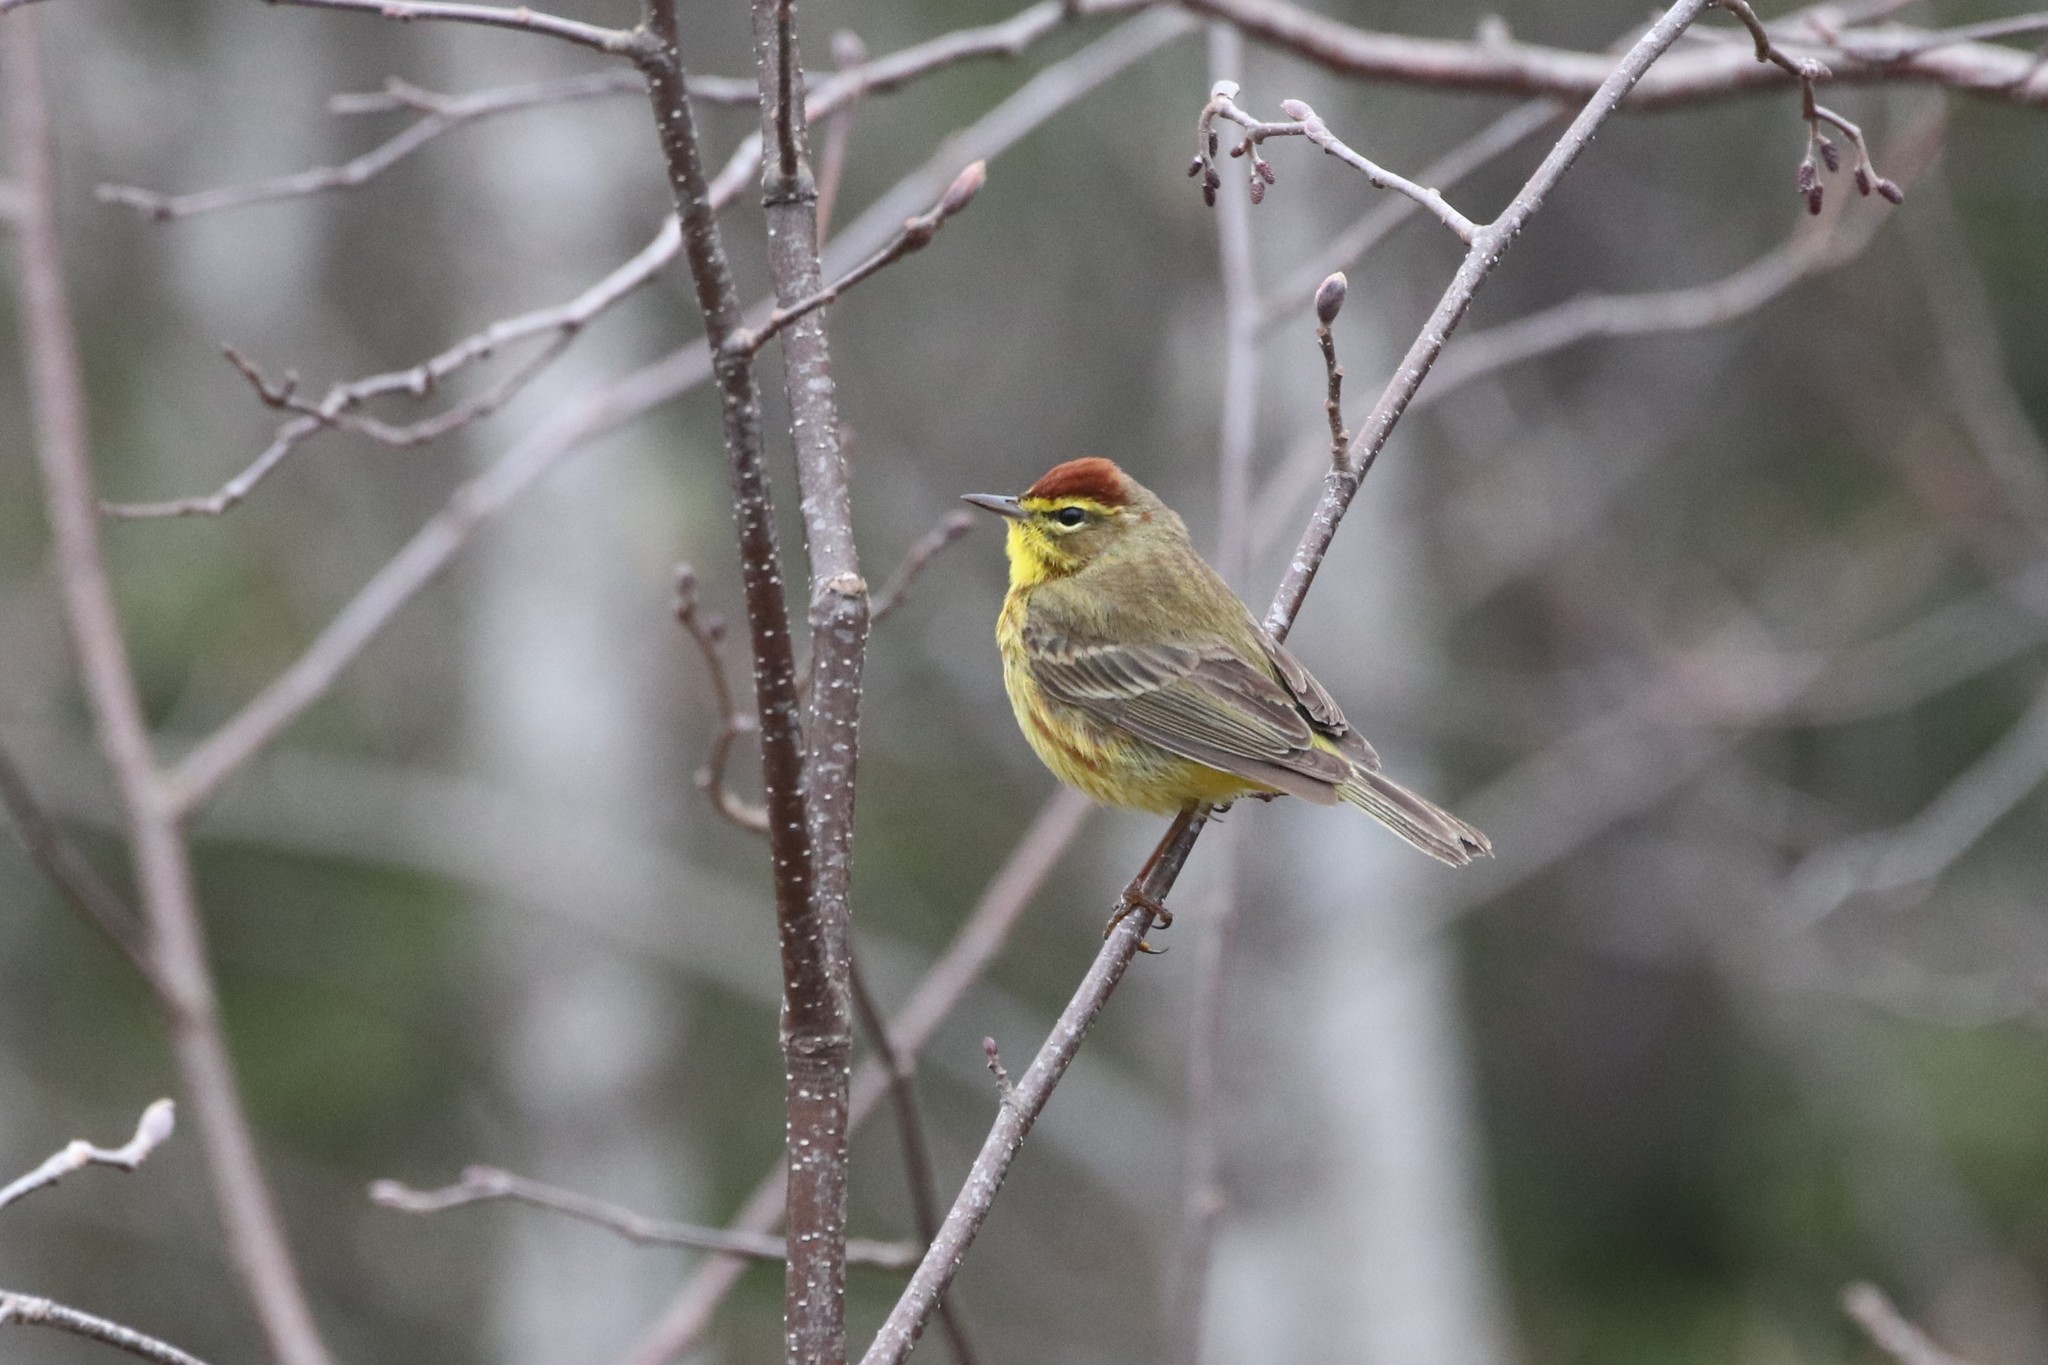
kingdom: Animalia
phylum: Chordata
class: Aves
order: Passeriformes
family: Parulidae
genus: Setophaga
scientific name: Setophaga palmarum
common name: Palm warbler
